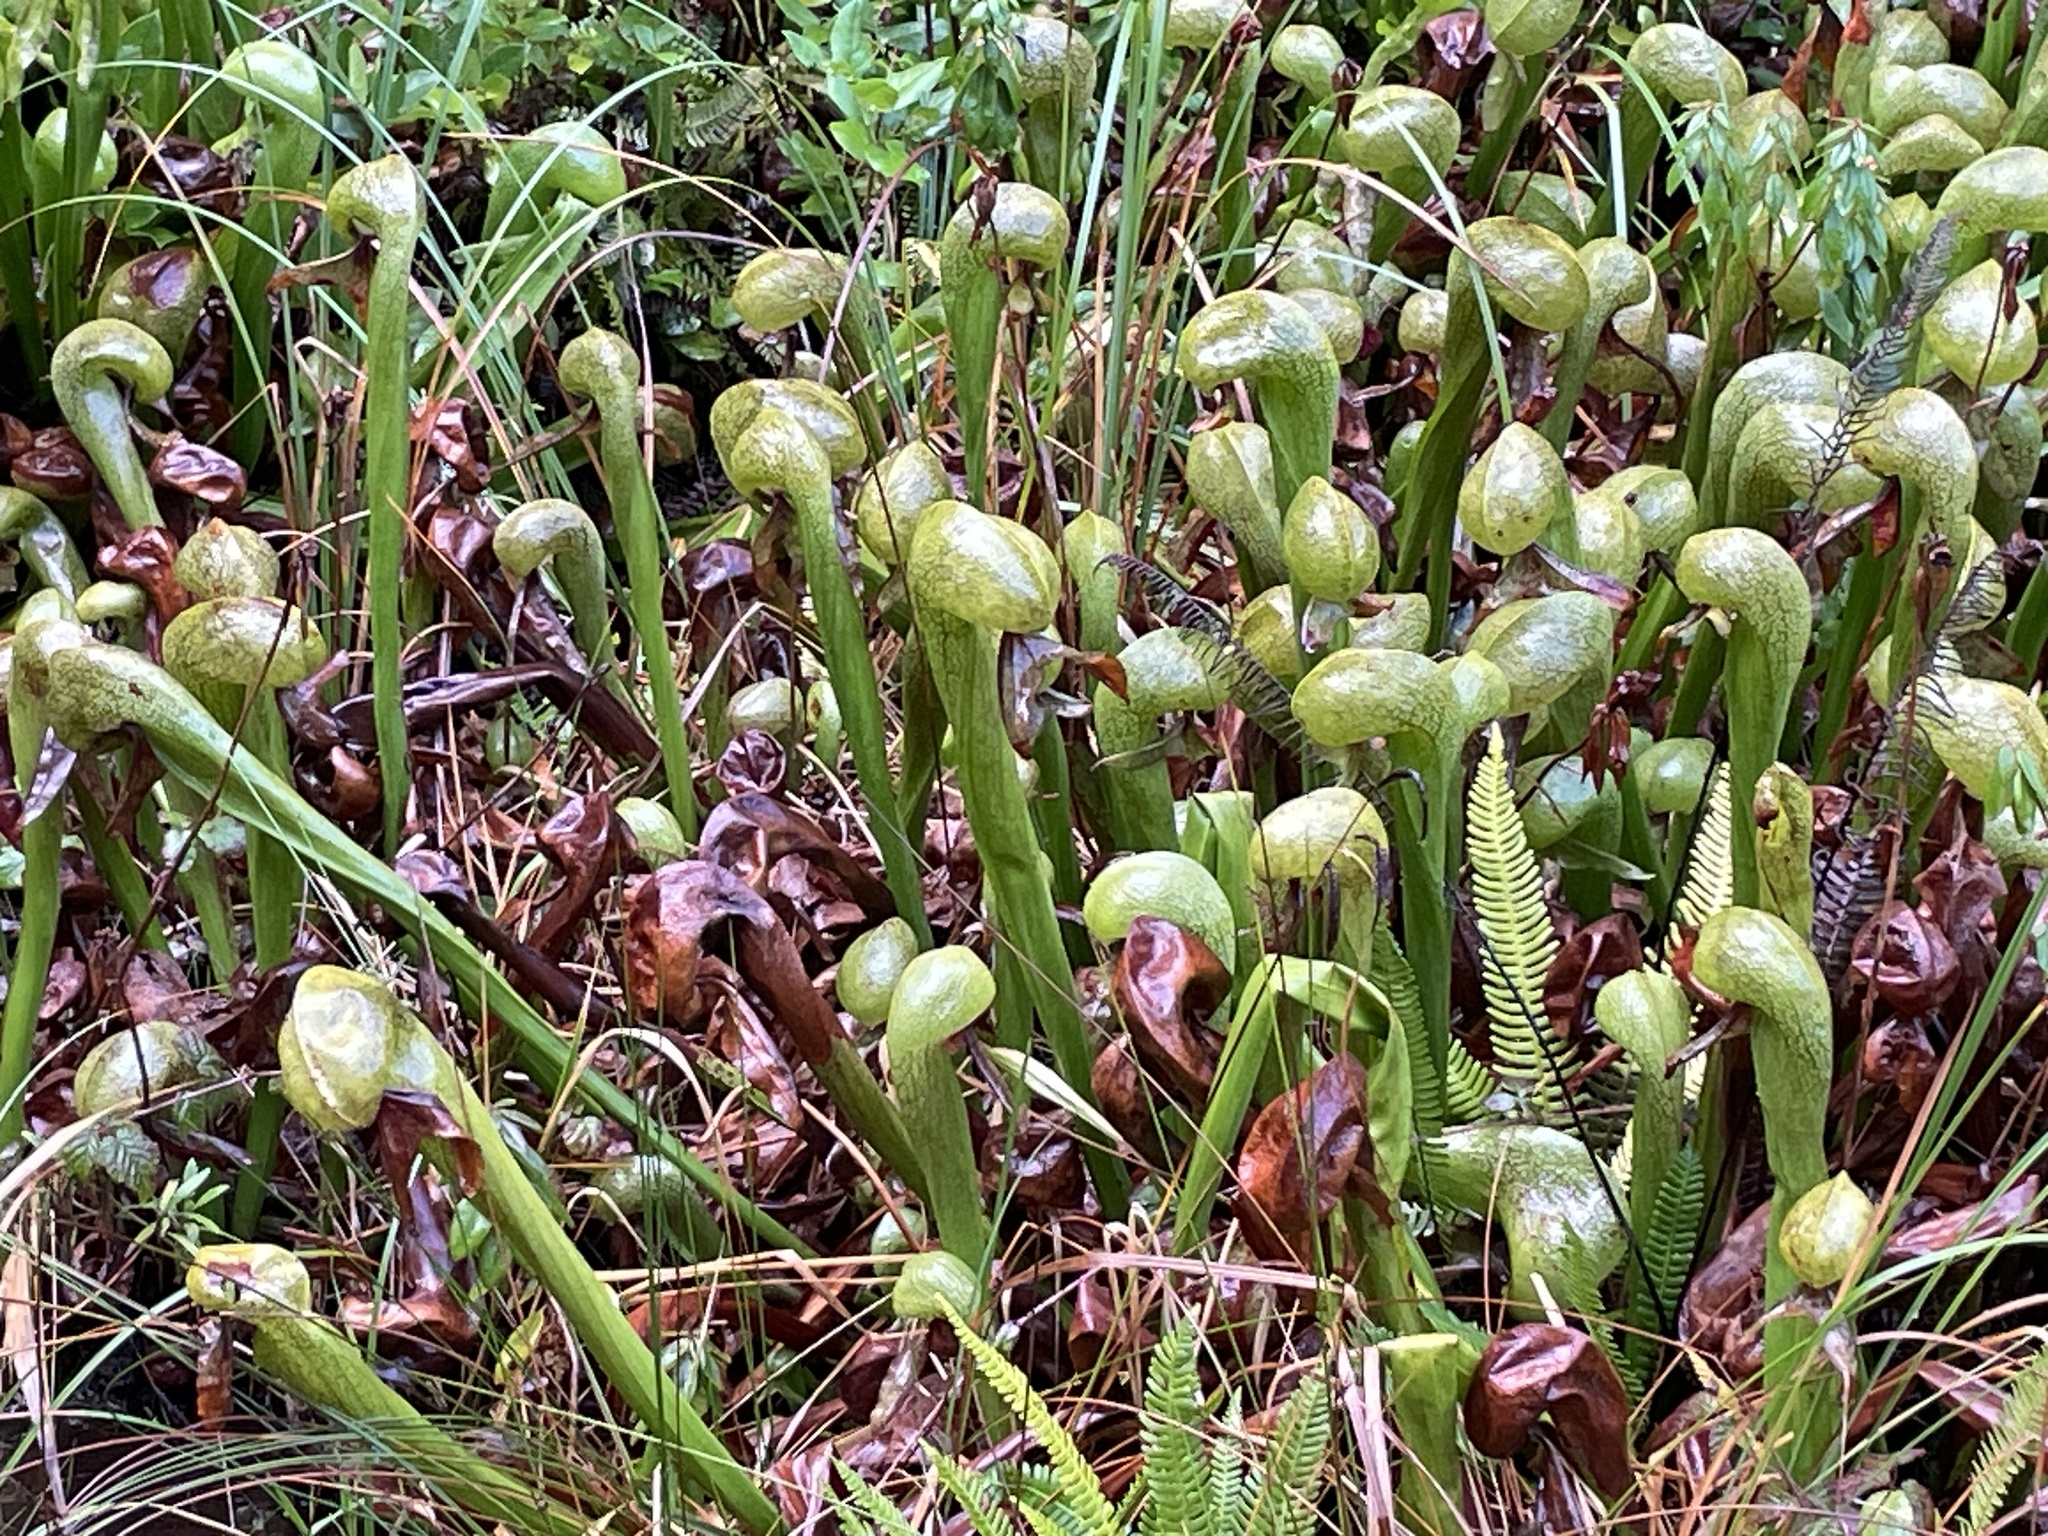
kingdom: Plantae
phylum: Tracheophyta
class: Magnoliopsida
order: Ericales
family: Sarraceniaceae
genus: Darlingtonia
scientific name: Darlingtonia californica
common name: California pitcher plant
